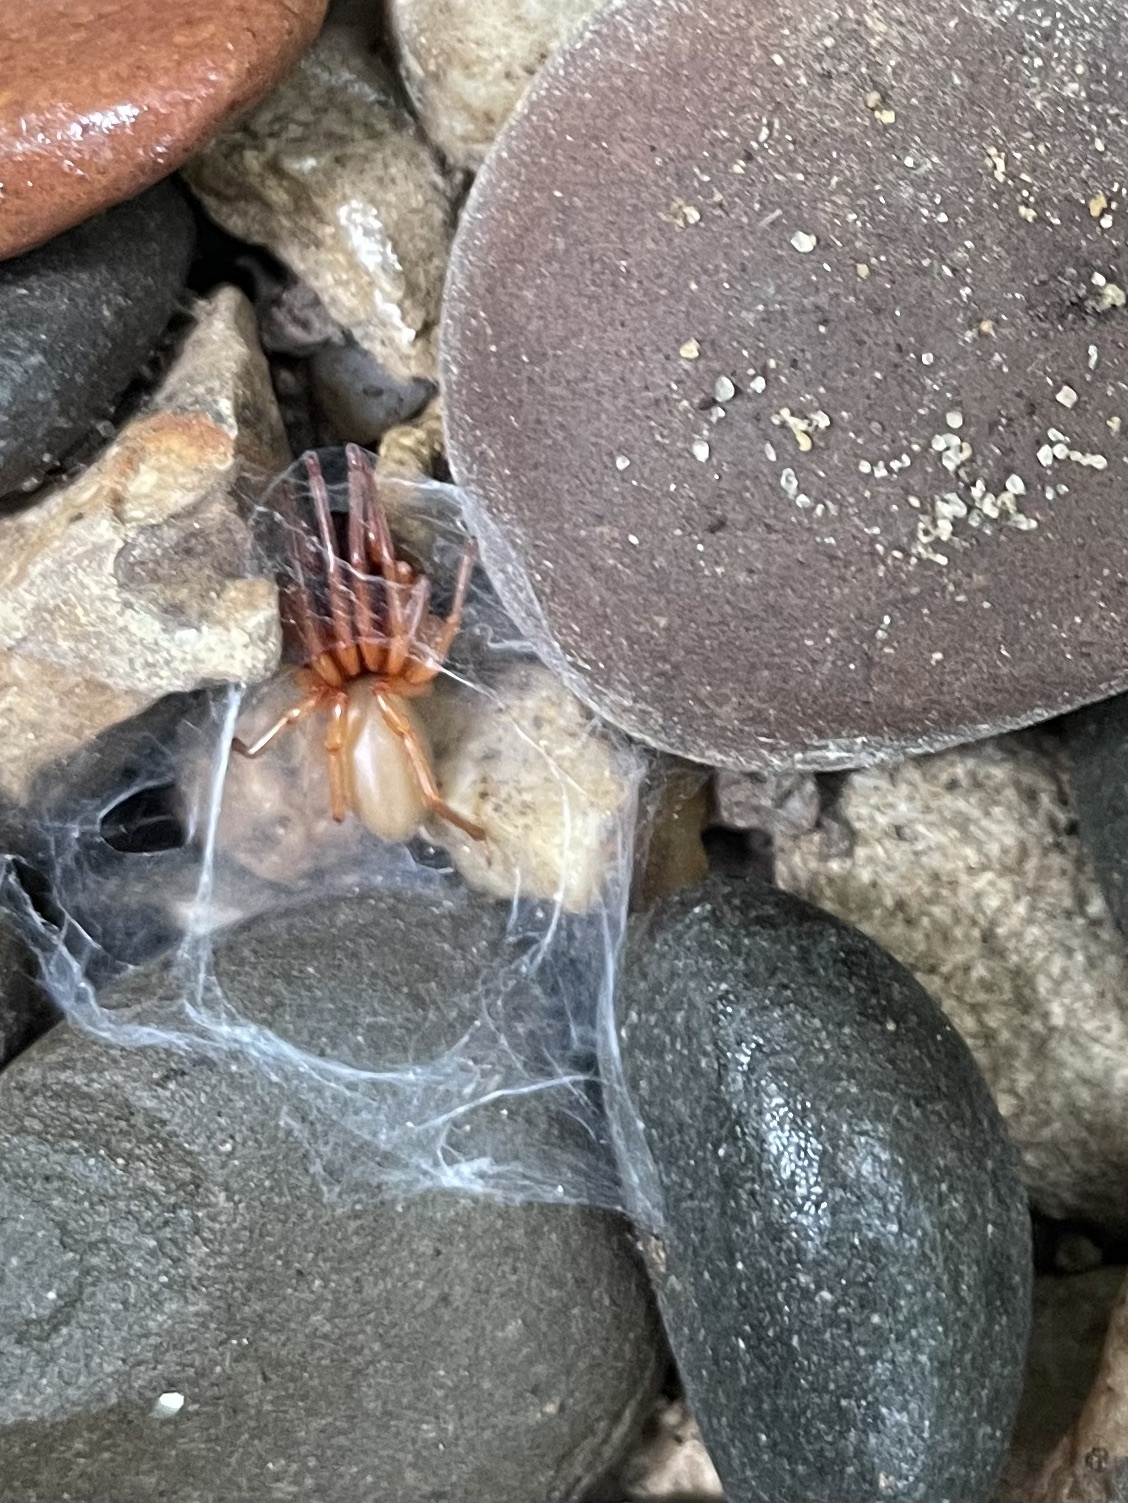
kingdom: Animalia
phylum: Arthropoda
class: Arachnida
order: Araneae
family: Dysderidae
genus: Dysdera
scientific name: Dysdera crocata
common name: Woodlouse spider
